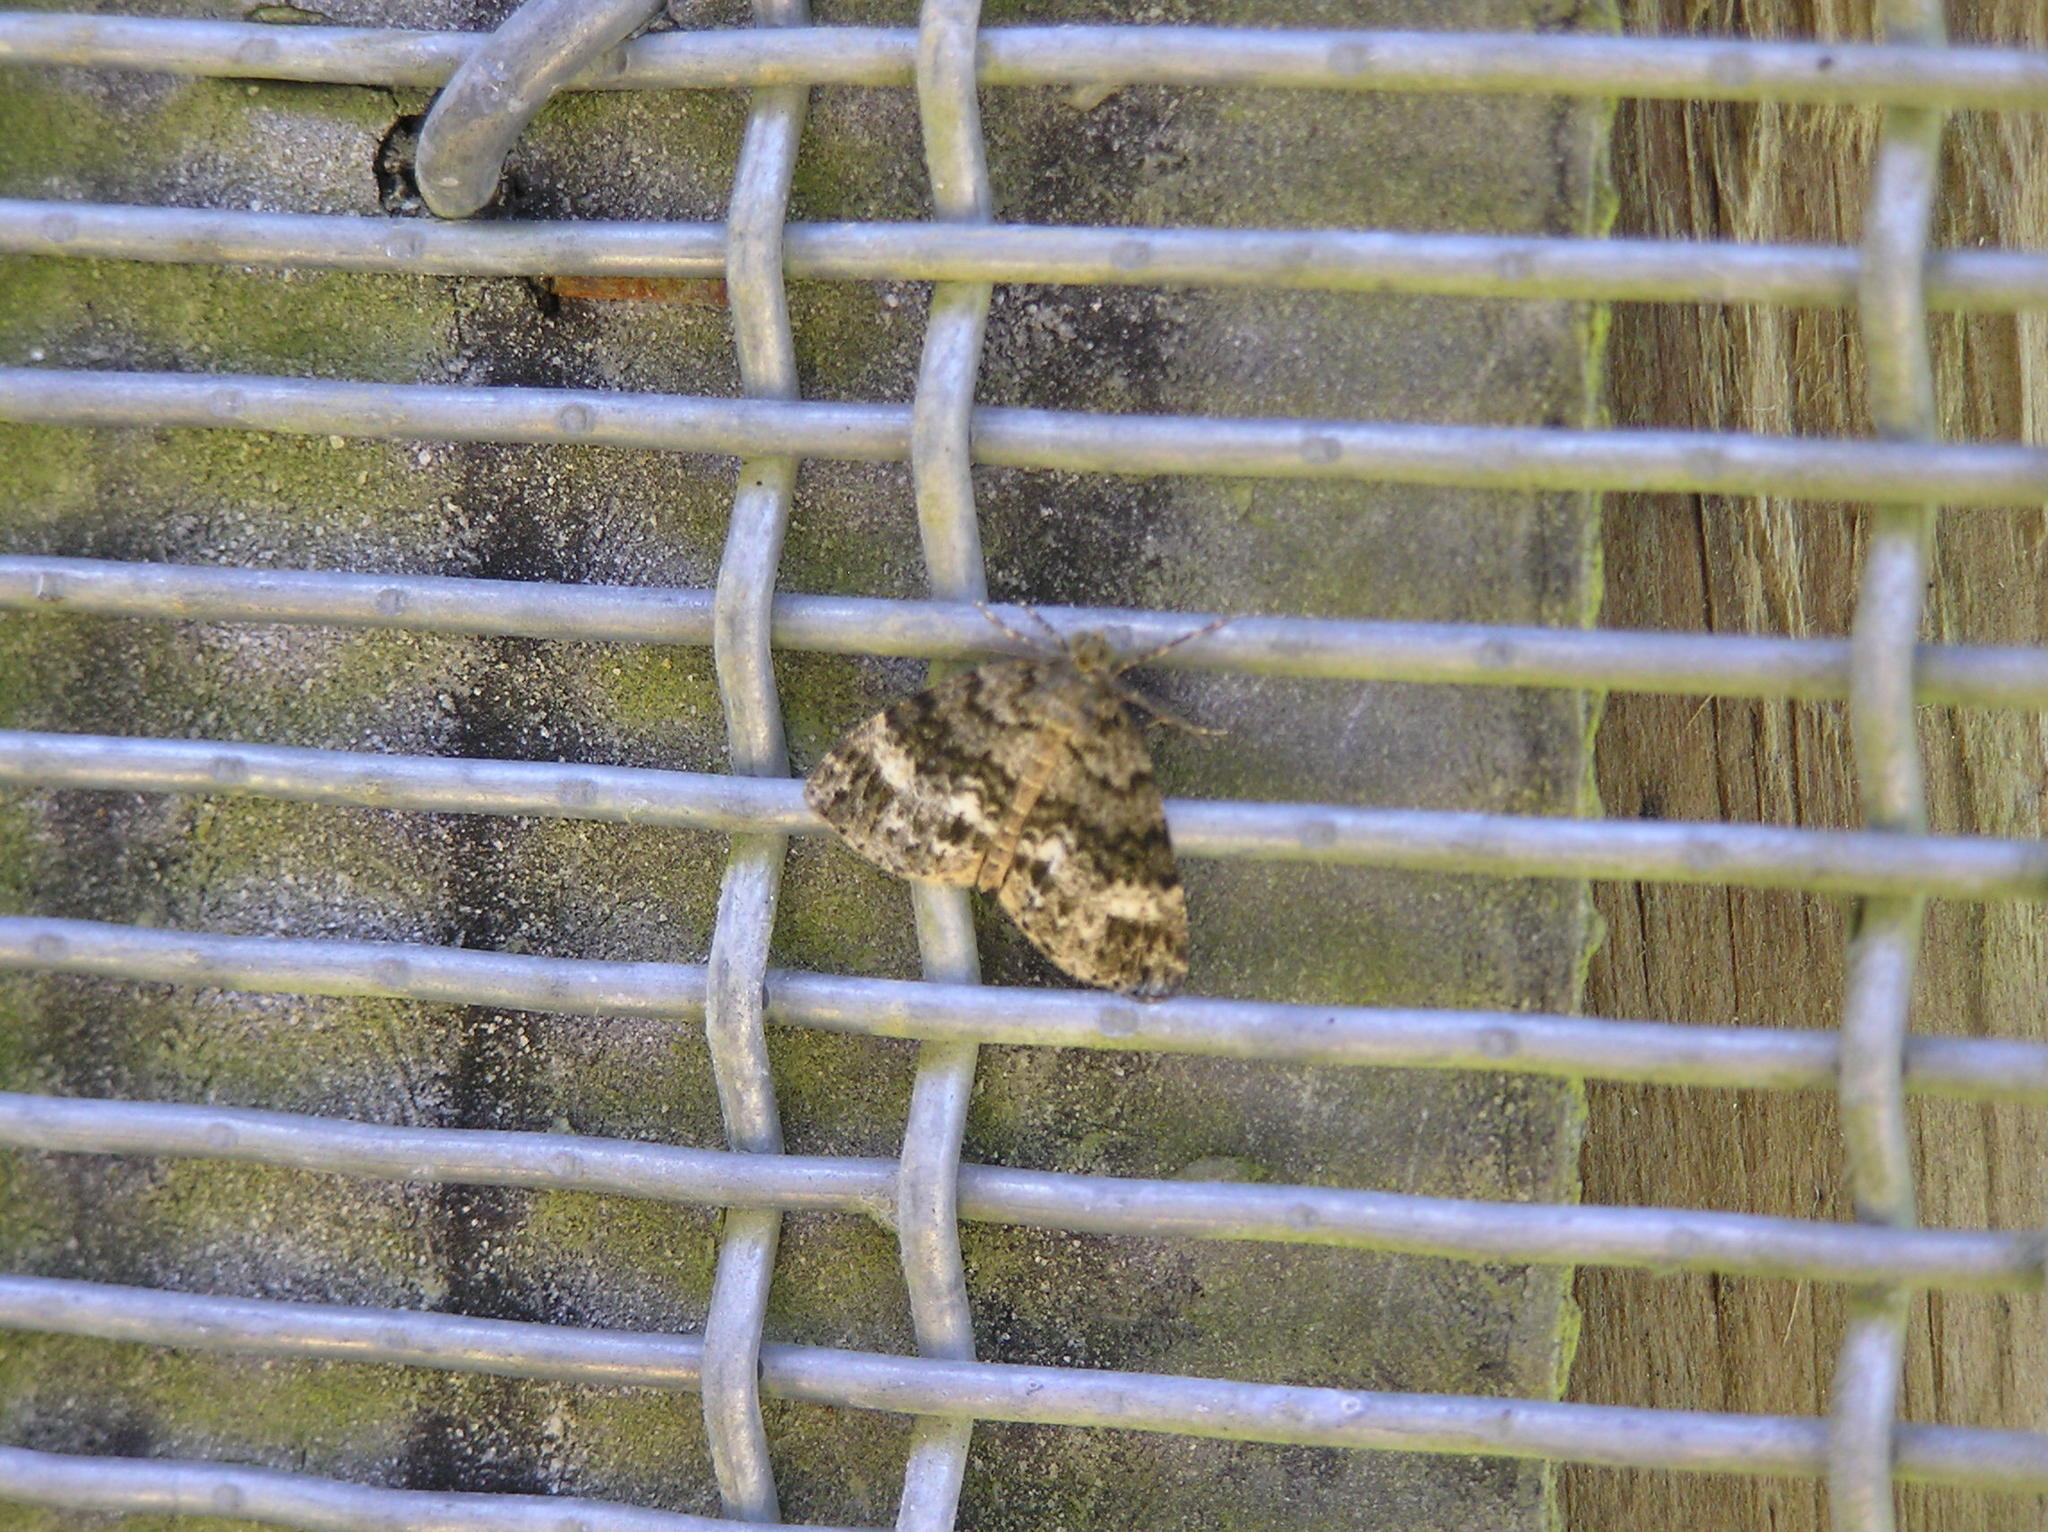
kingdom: Animalia
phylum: Arthropoda
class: Insecta
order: Lepidoptera
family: Geometridae
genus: Pseudocoremia
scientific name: Pseudocoremia indistincta
